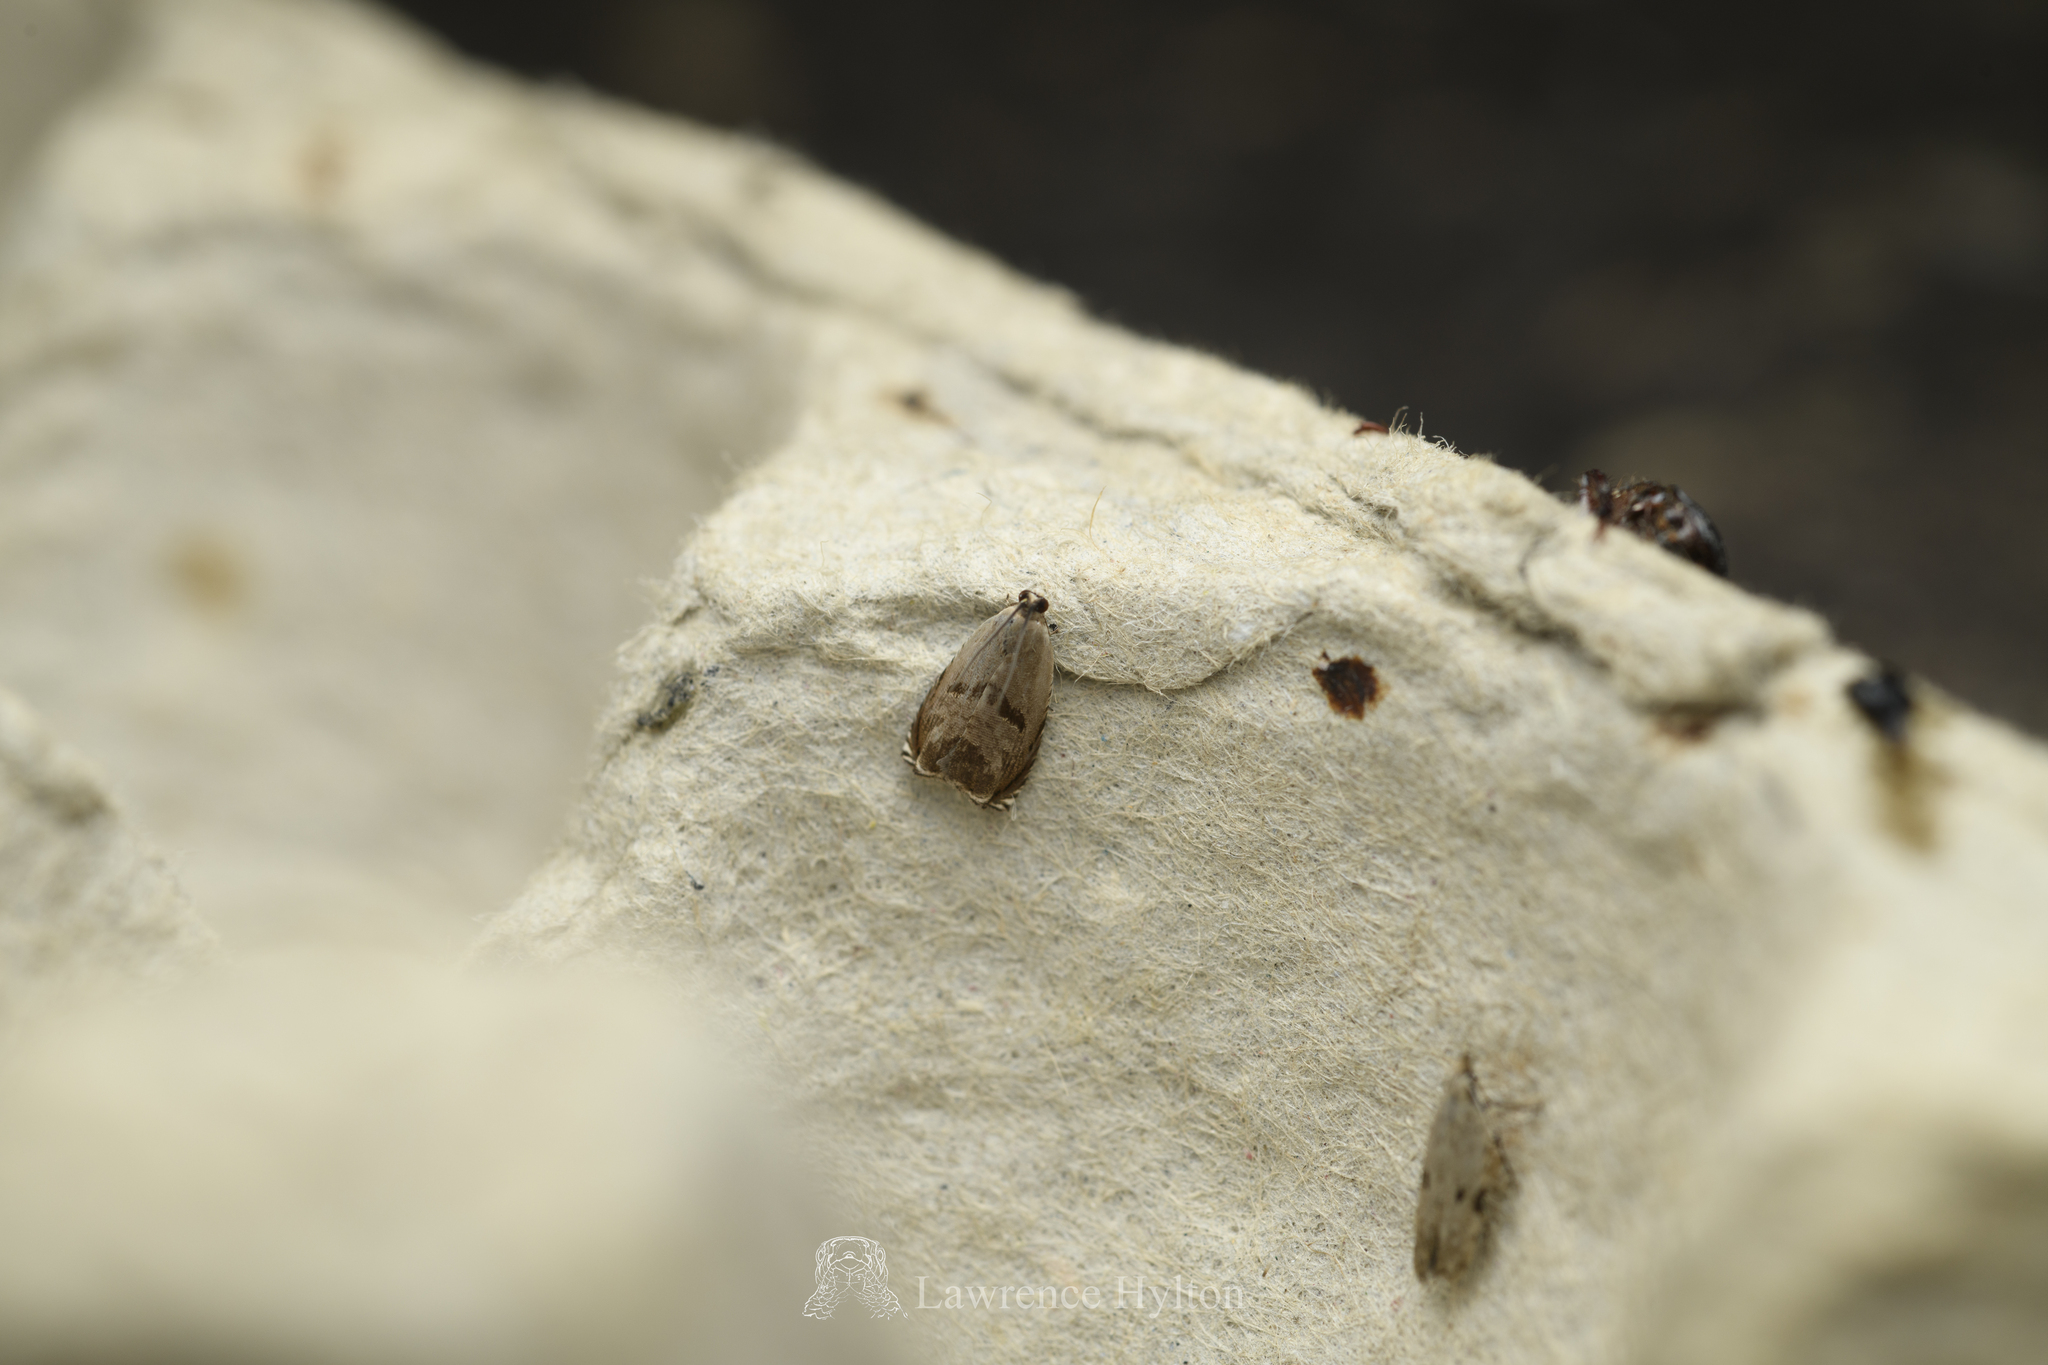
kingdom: Animalia
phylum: Arthropoda
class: Insecta
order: Lepidoptera
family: Tortricidae
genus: Andrioplecta
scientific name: Andrioplecta oxystaura
